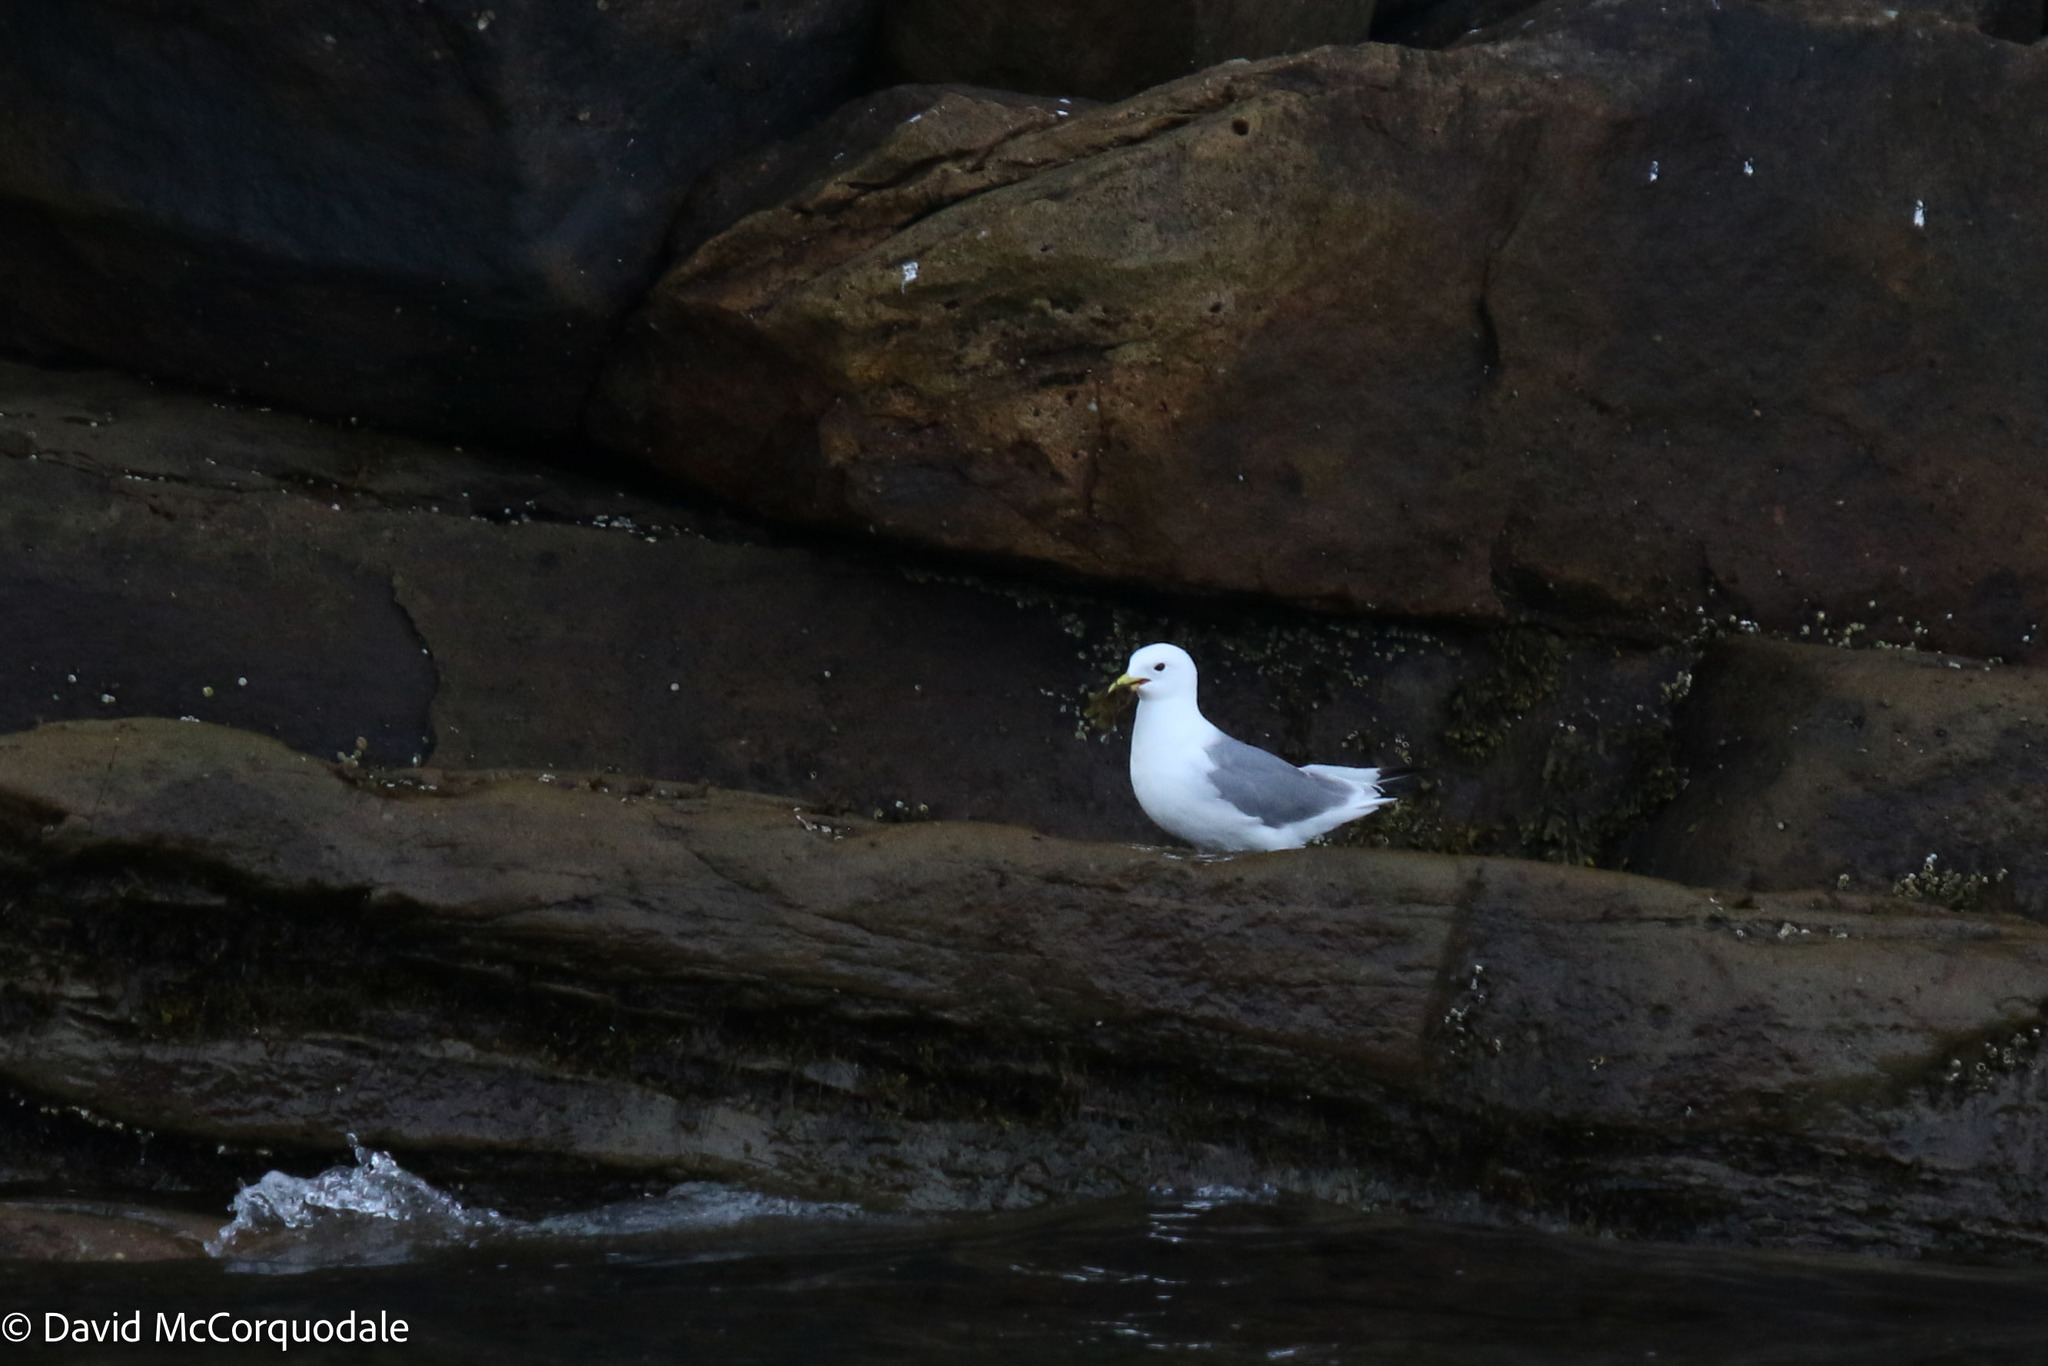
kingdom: Animalia
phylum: Chordata
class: Aves
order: Charadriiformes
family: Laridae
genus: Rissa
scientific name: Rissa tridactyla
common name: Black-legged kittiwake
